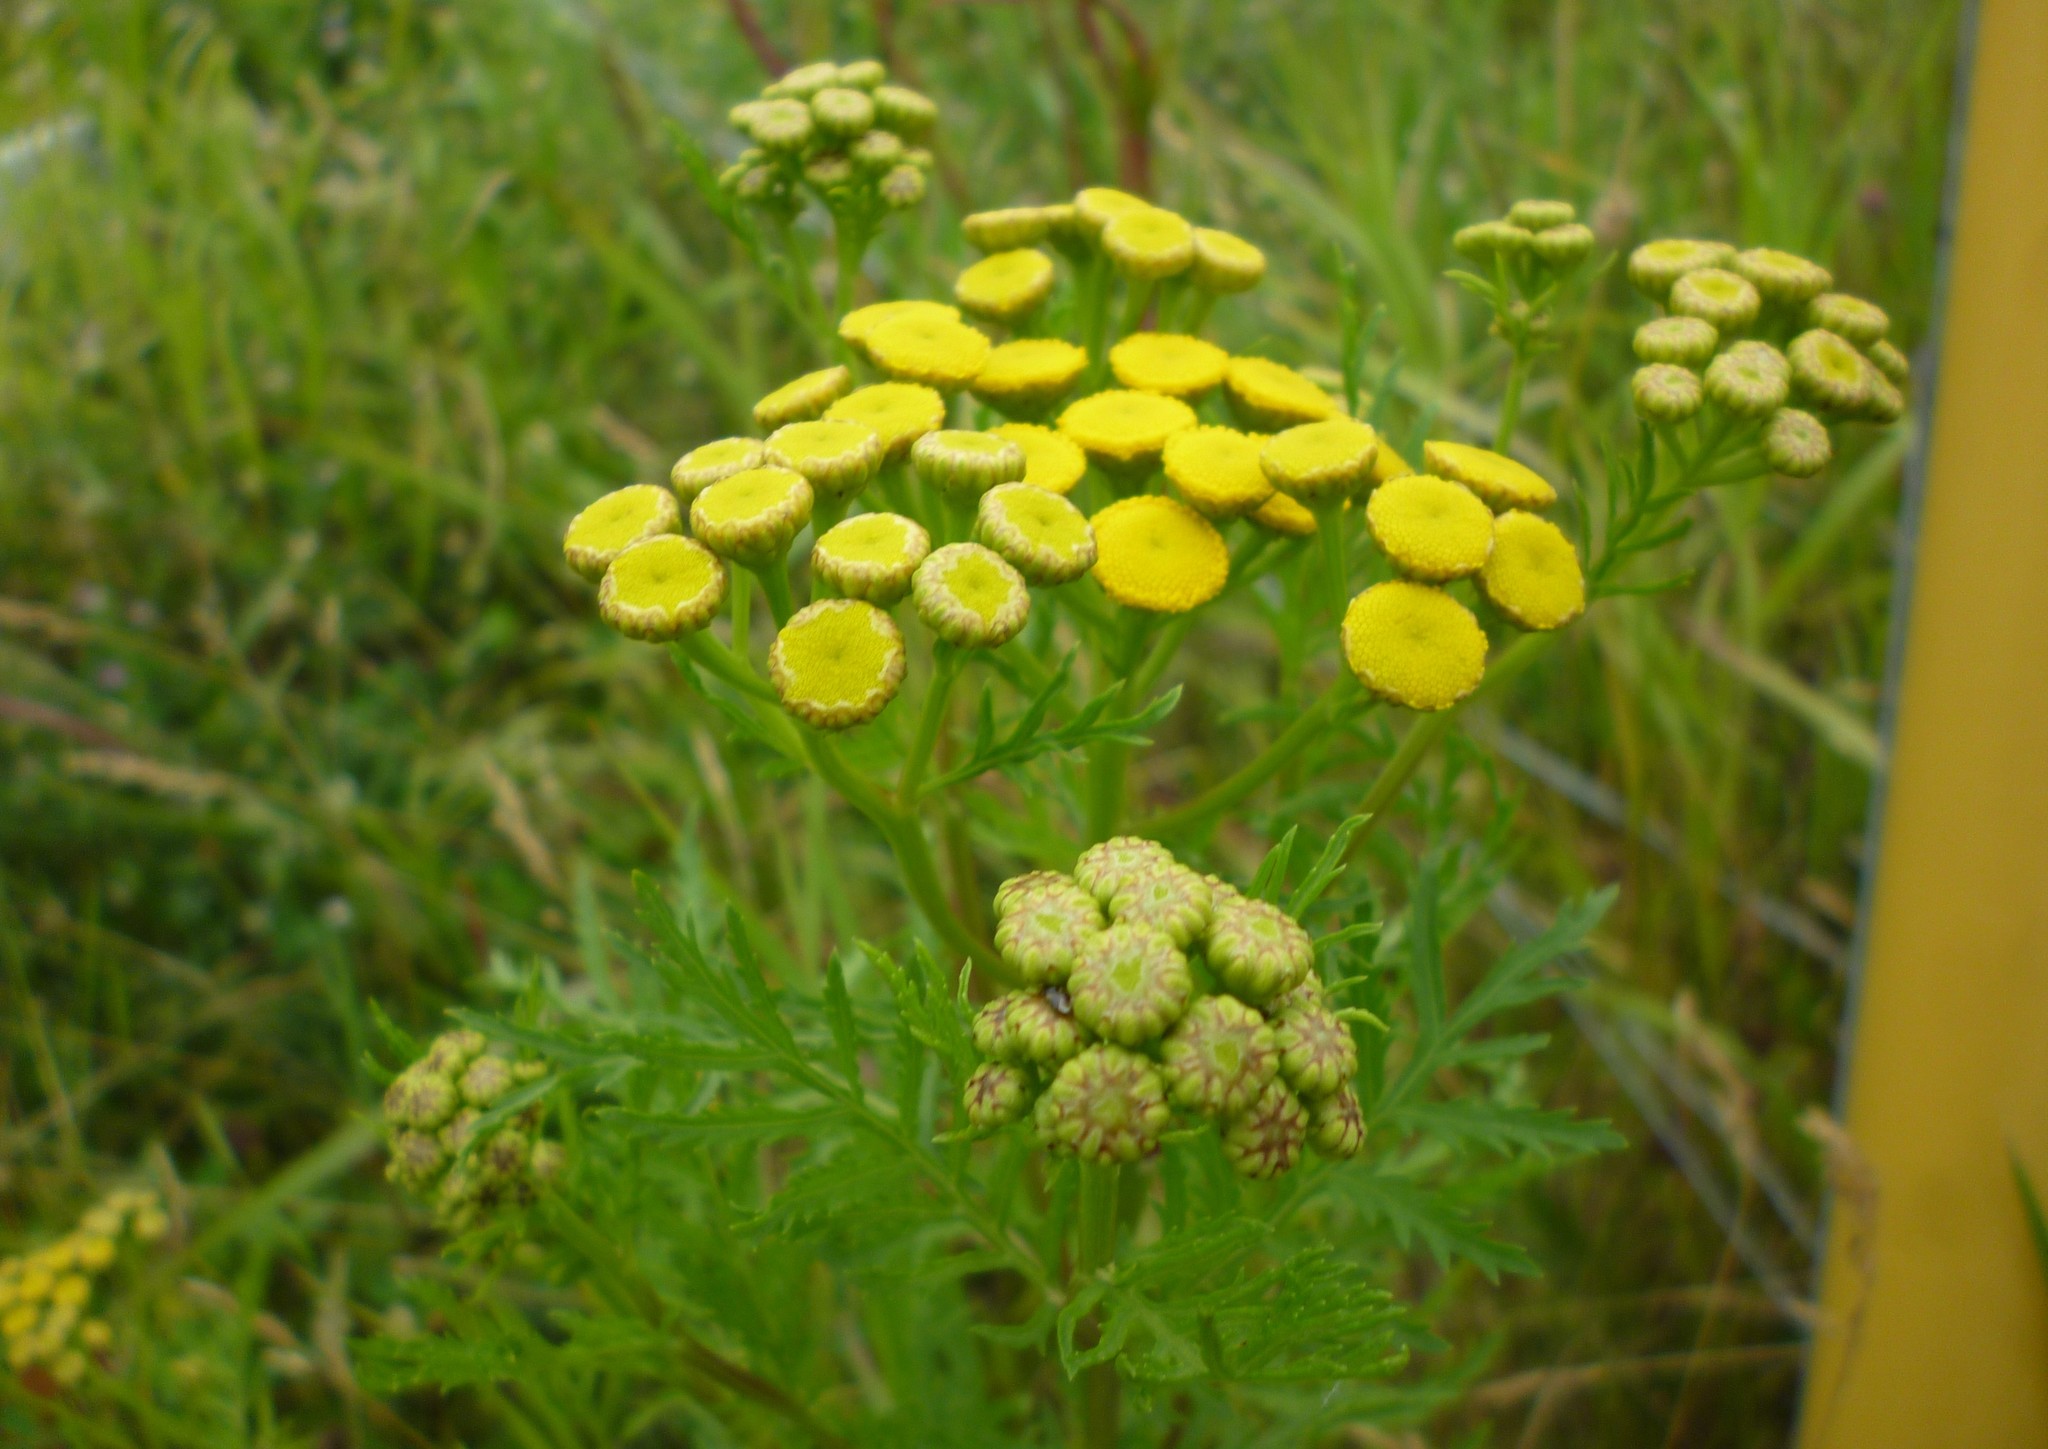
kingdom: Plantae
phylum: Tracheophyta
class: Magnoliopsida
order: Asterales
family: Asteraceae
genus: Tanacetum
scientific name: Tanacetum vulgare
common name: Common tansy
